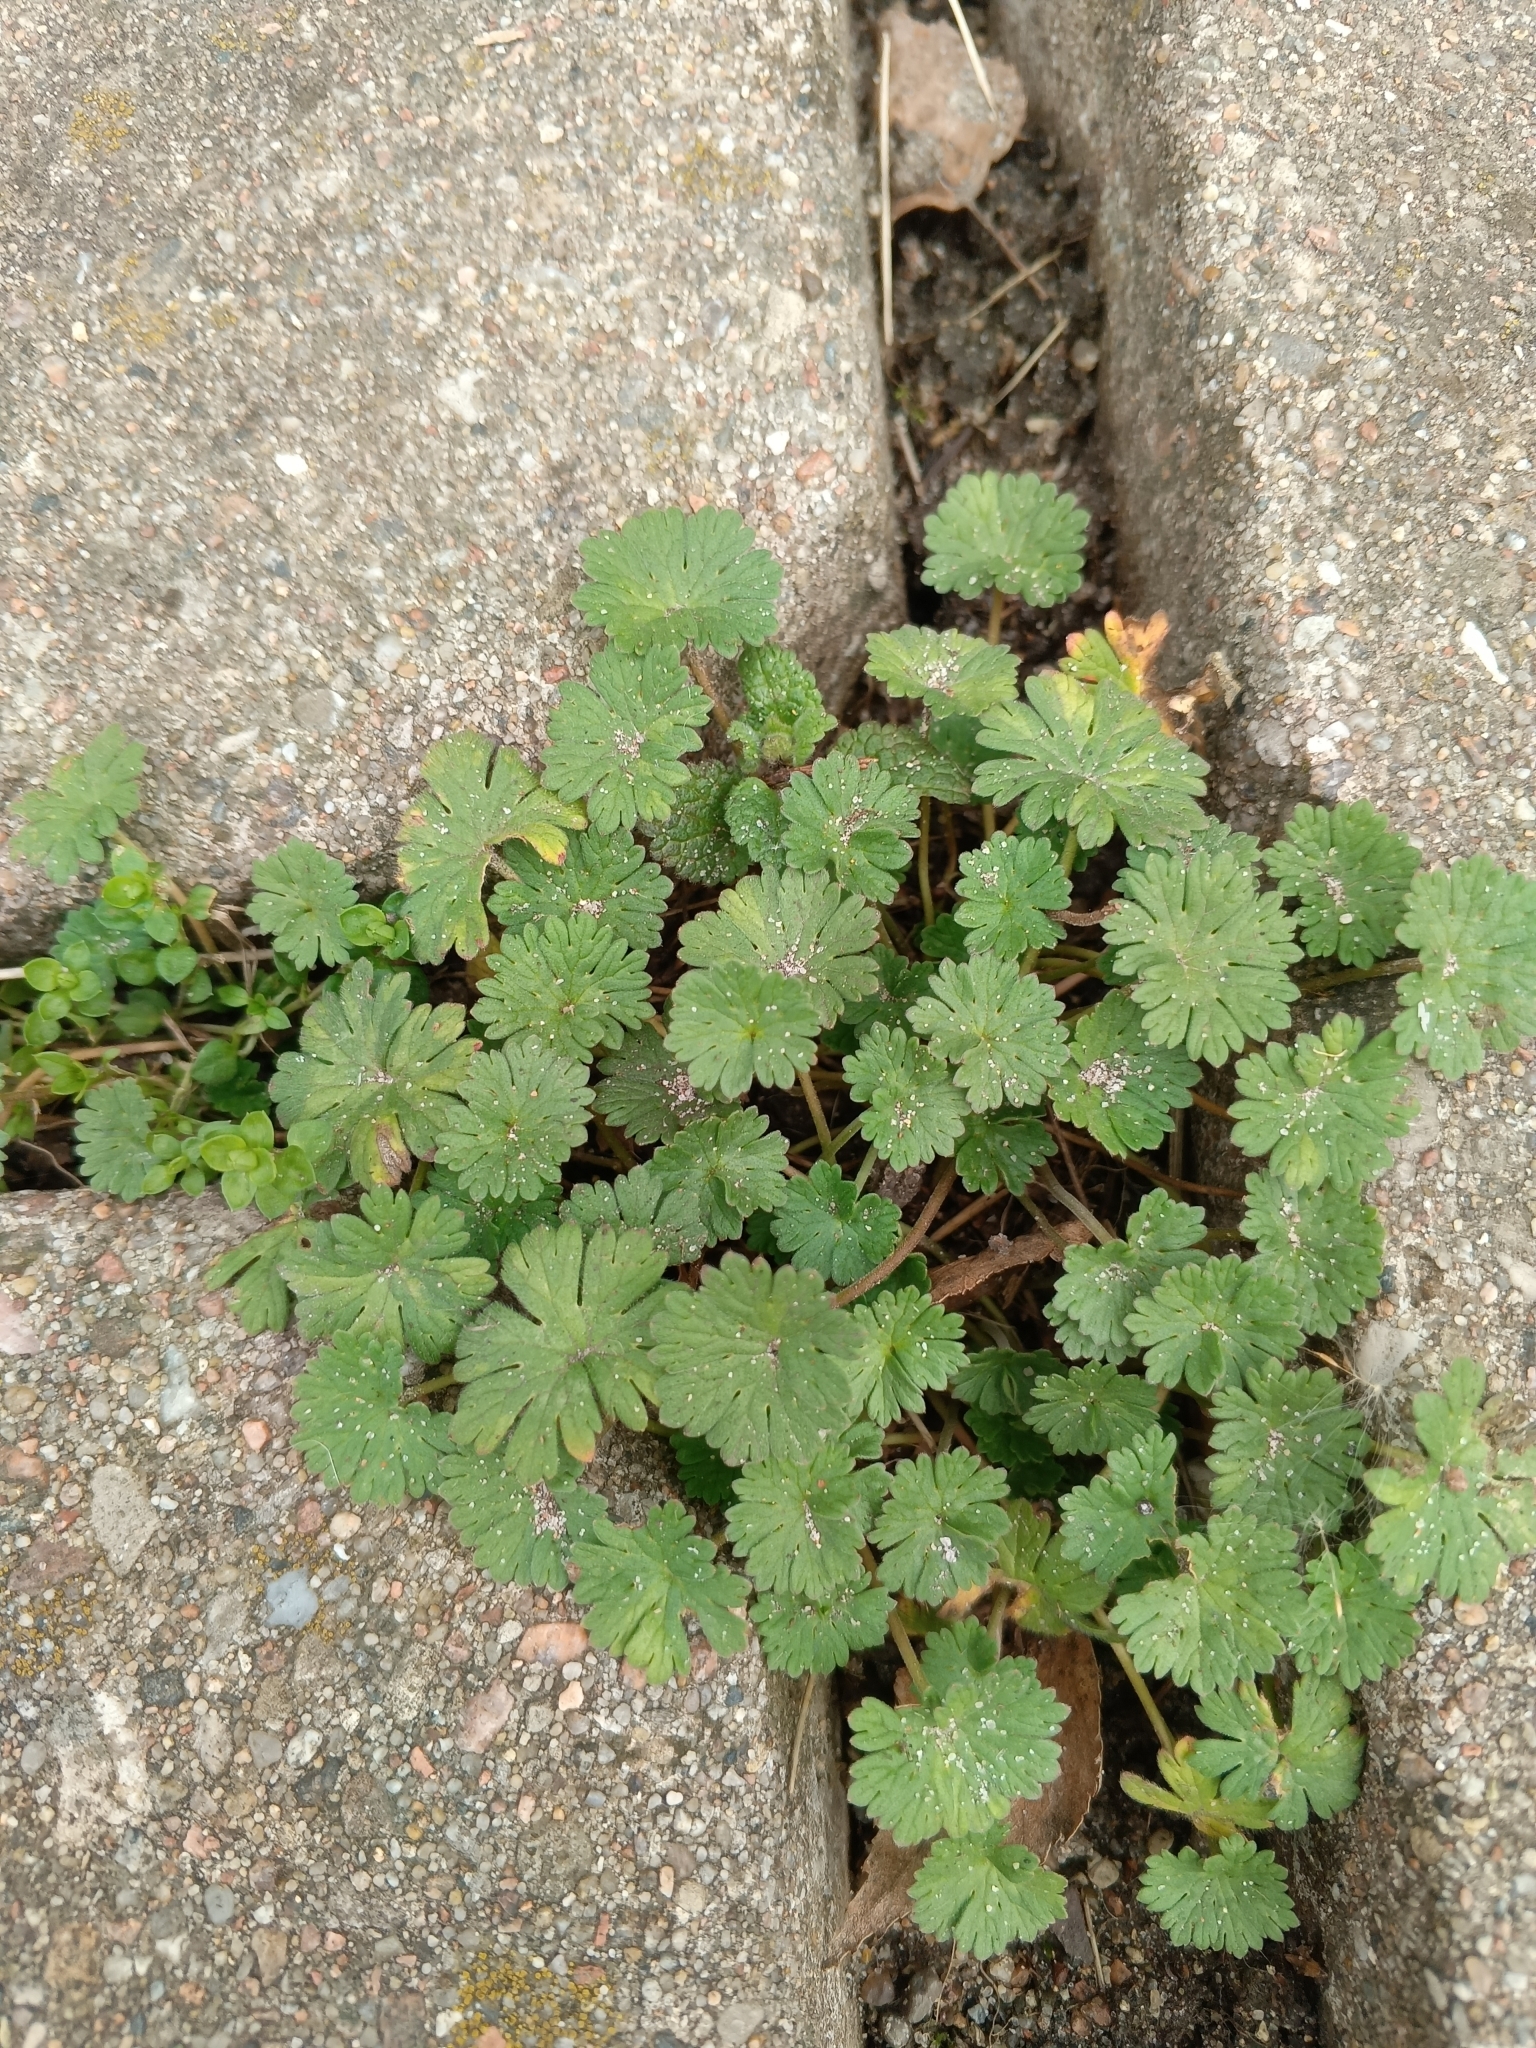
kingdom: Plantae
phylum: Tracheophyta
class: Magnoliopsida
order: Geraniales
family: Geraniaceae
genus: Geranium
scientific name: Geranium pusillum
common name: Small geranium
